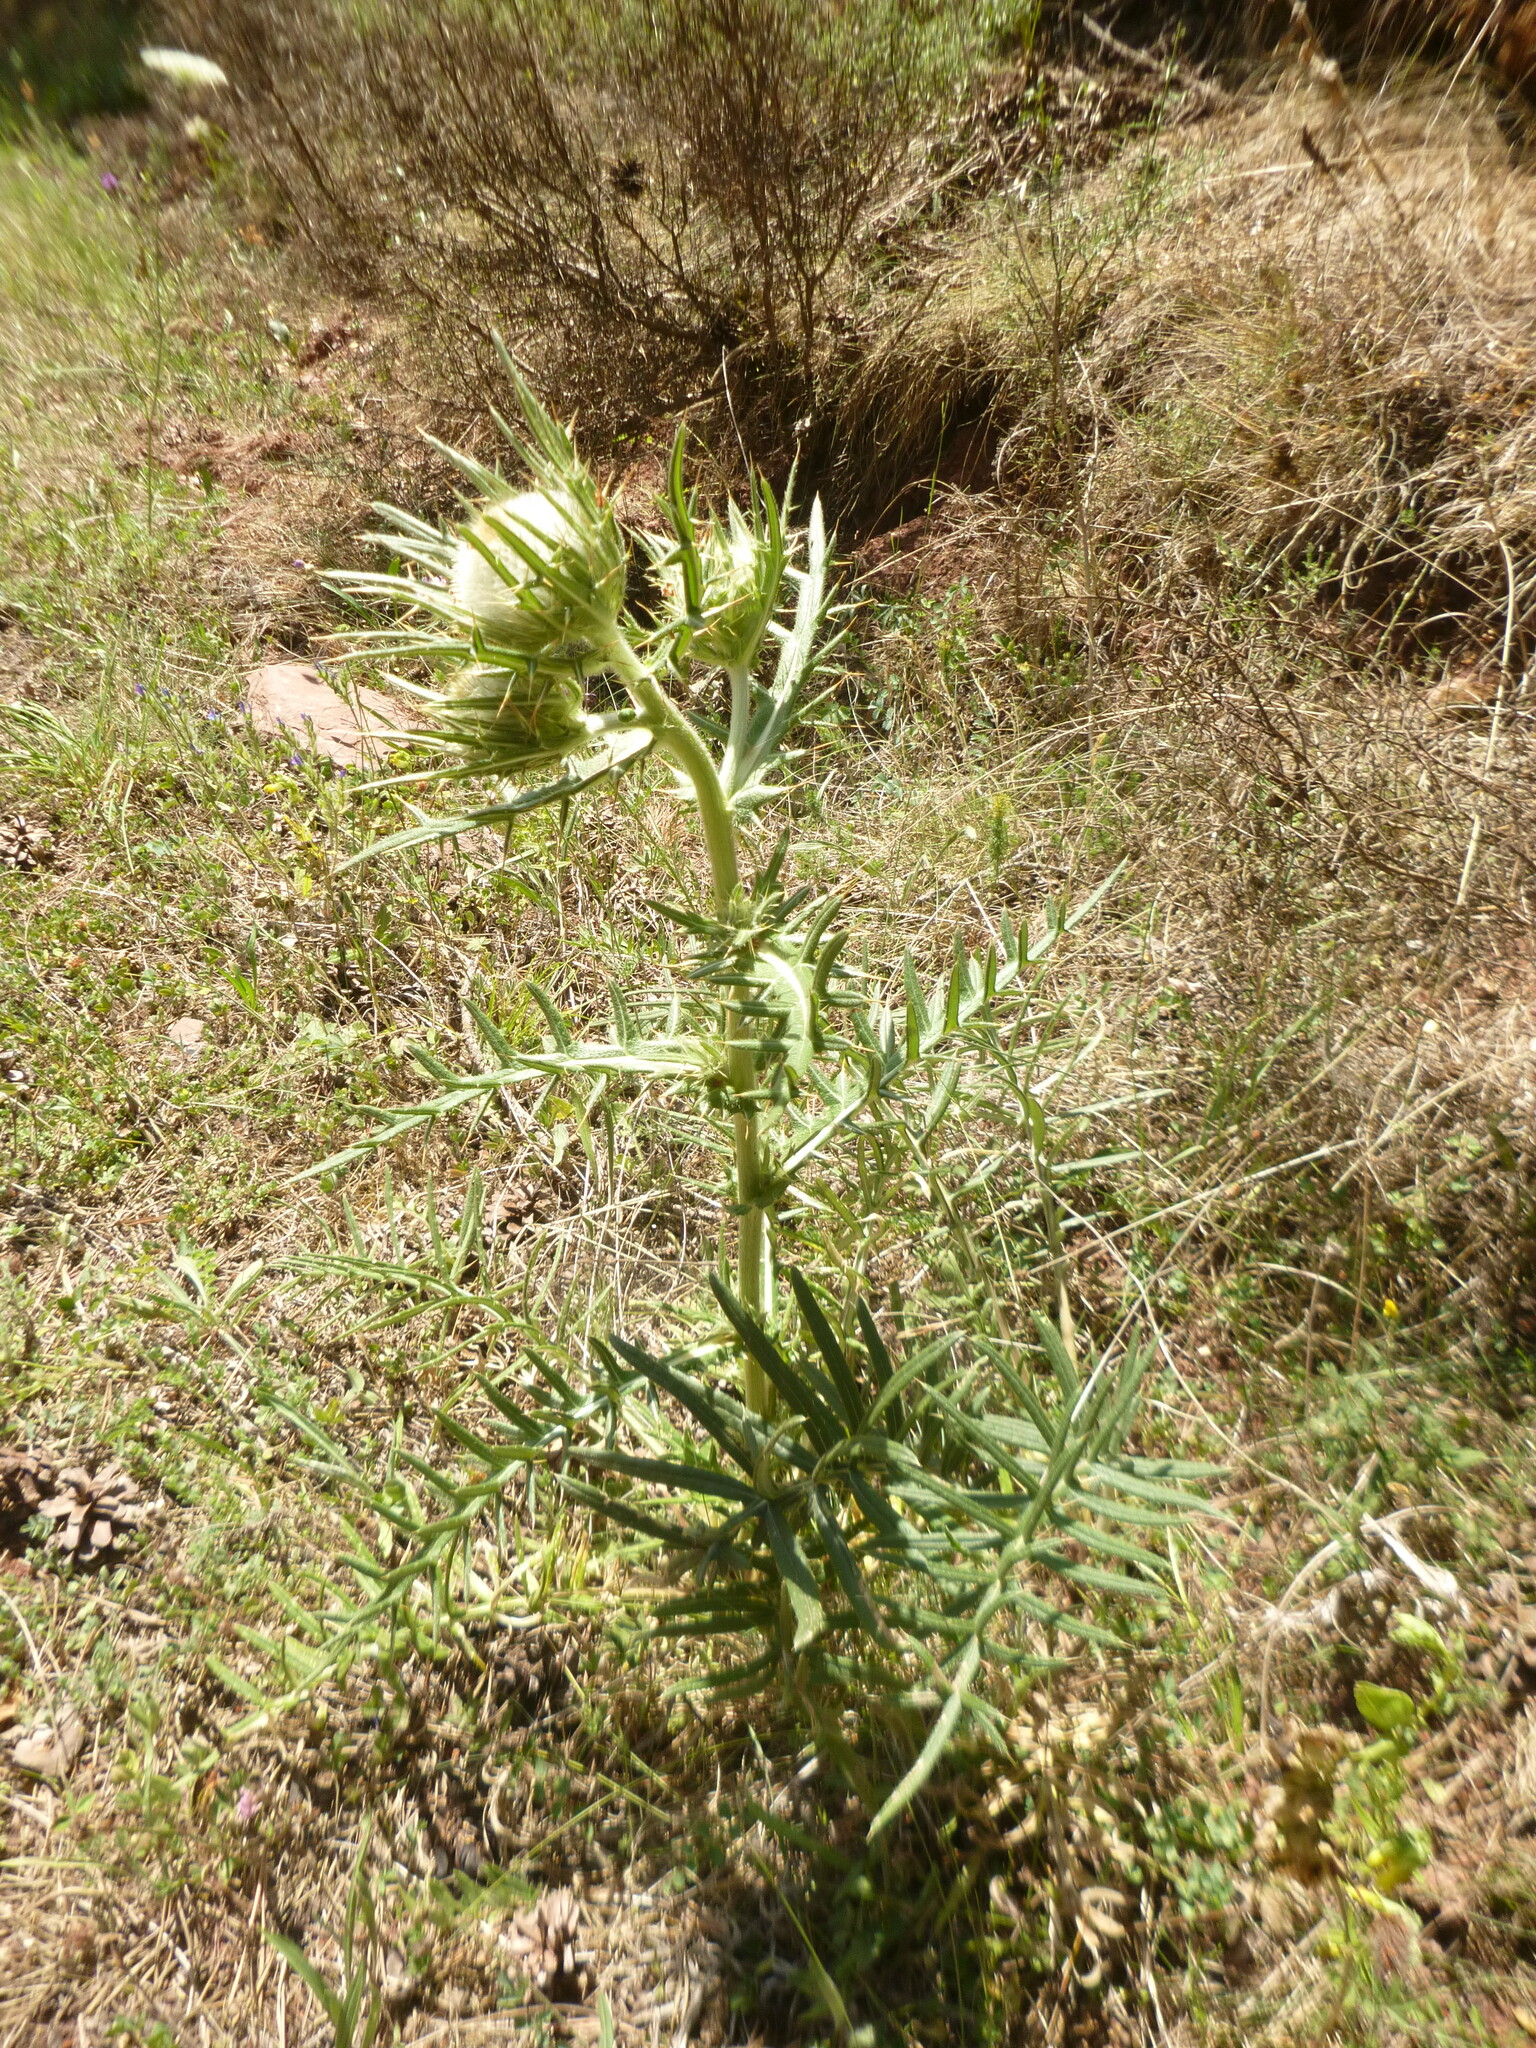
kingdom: Plantae
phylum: Tracheophyta
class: Magnoliopsida
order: Asterales
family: Asteraceae
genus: Lophiolepis
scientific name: Lophiolepis eriophora
